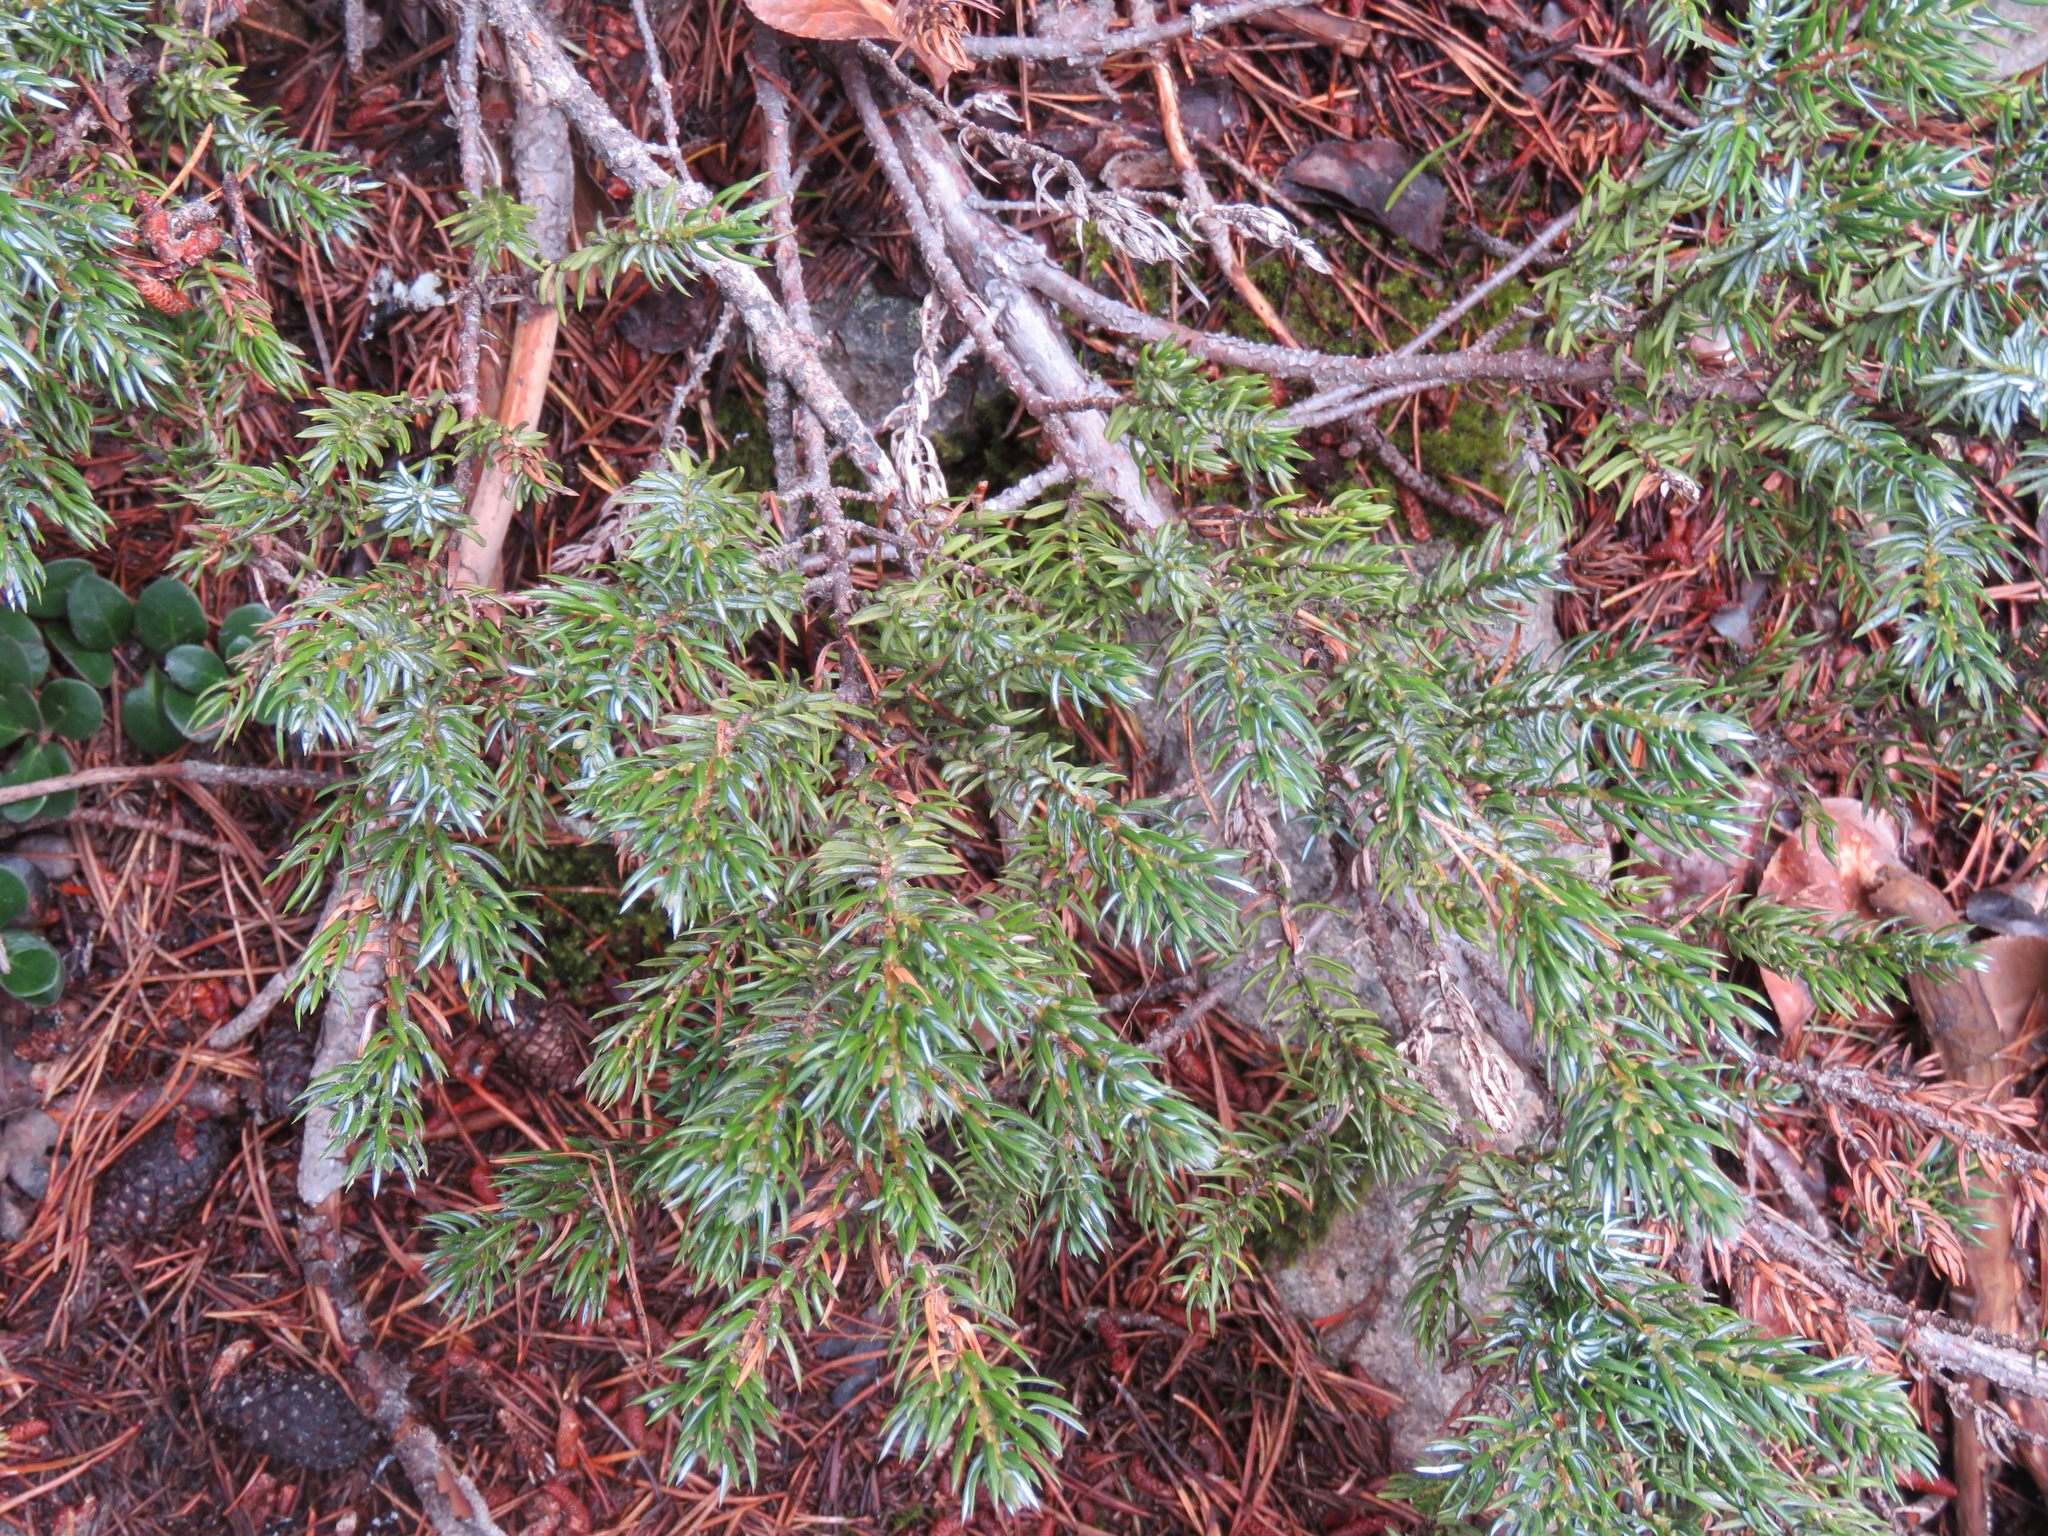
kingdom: Plantae
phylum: Tracheophyta
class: Pinopsida
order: Pinales
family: Cupressaceae
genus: Juniperus
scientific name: Juniperus communis
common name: Common juniper
